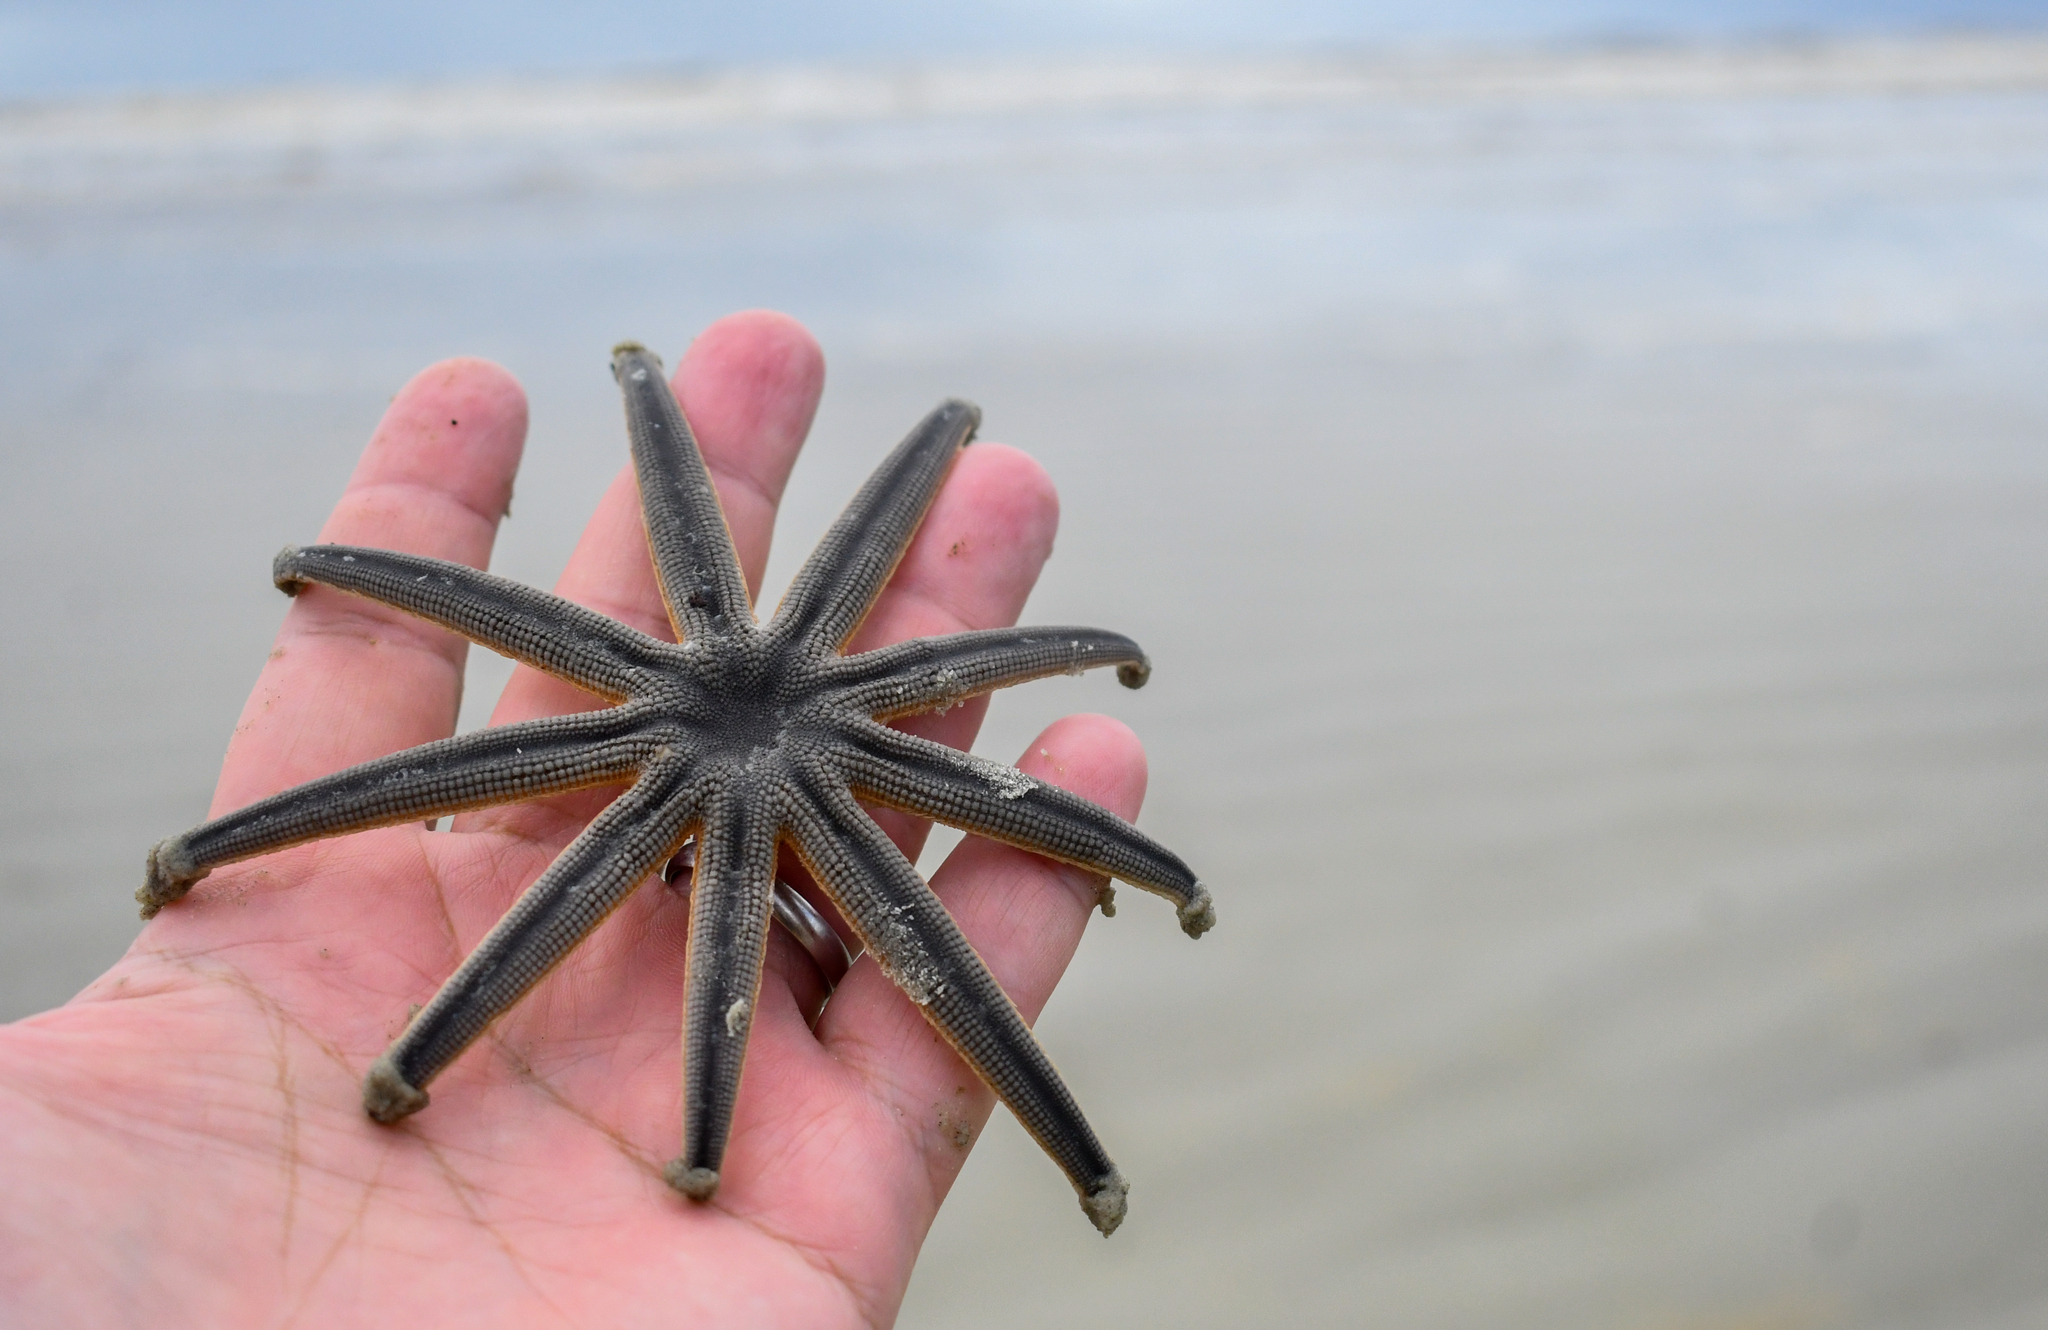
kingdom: Animalia
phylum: Echinodermata
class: Asteroidea
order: Paxillosida
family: Luidiidae
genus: Luidia
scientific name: Luidia senegalensis
